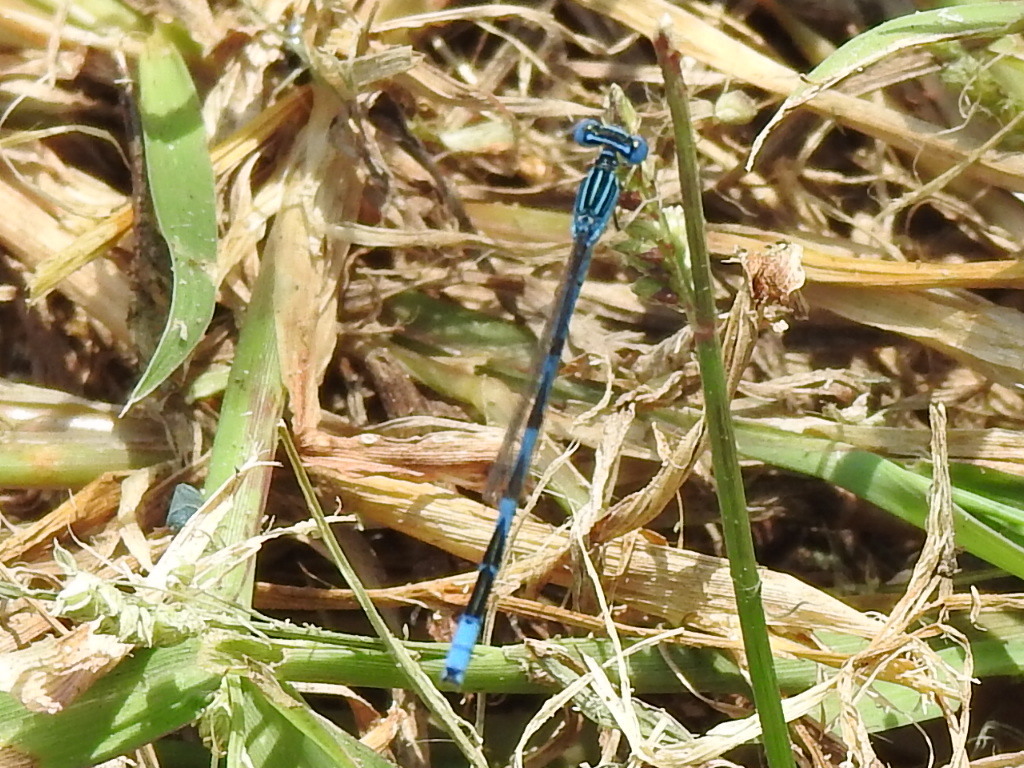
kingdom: Animalia
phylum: Arthropoda
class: Insecta
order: Odonata
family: Coenagrionidae
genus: Enallagma
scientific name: Enallagma basidens
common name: Double-striped bluet
